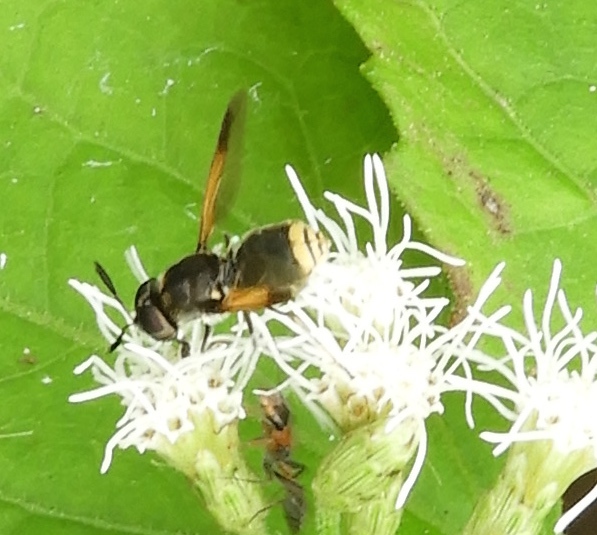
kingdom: Animalia
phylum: Arthropoda
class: Insecta
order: Diptera
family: Stratiomyidae
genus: Hoplitimyia
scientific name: Hoplitimyia
